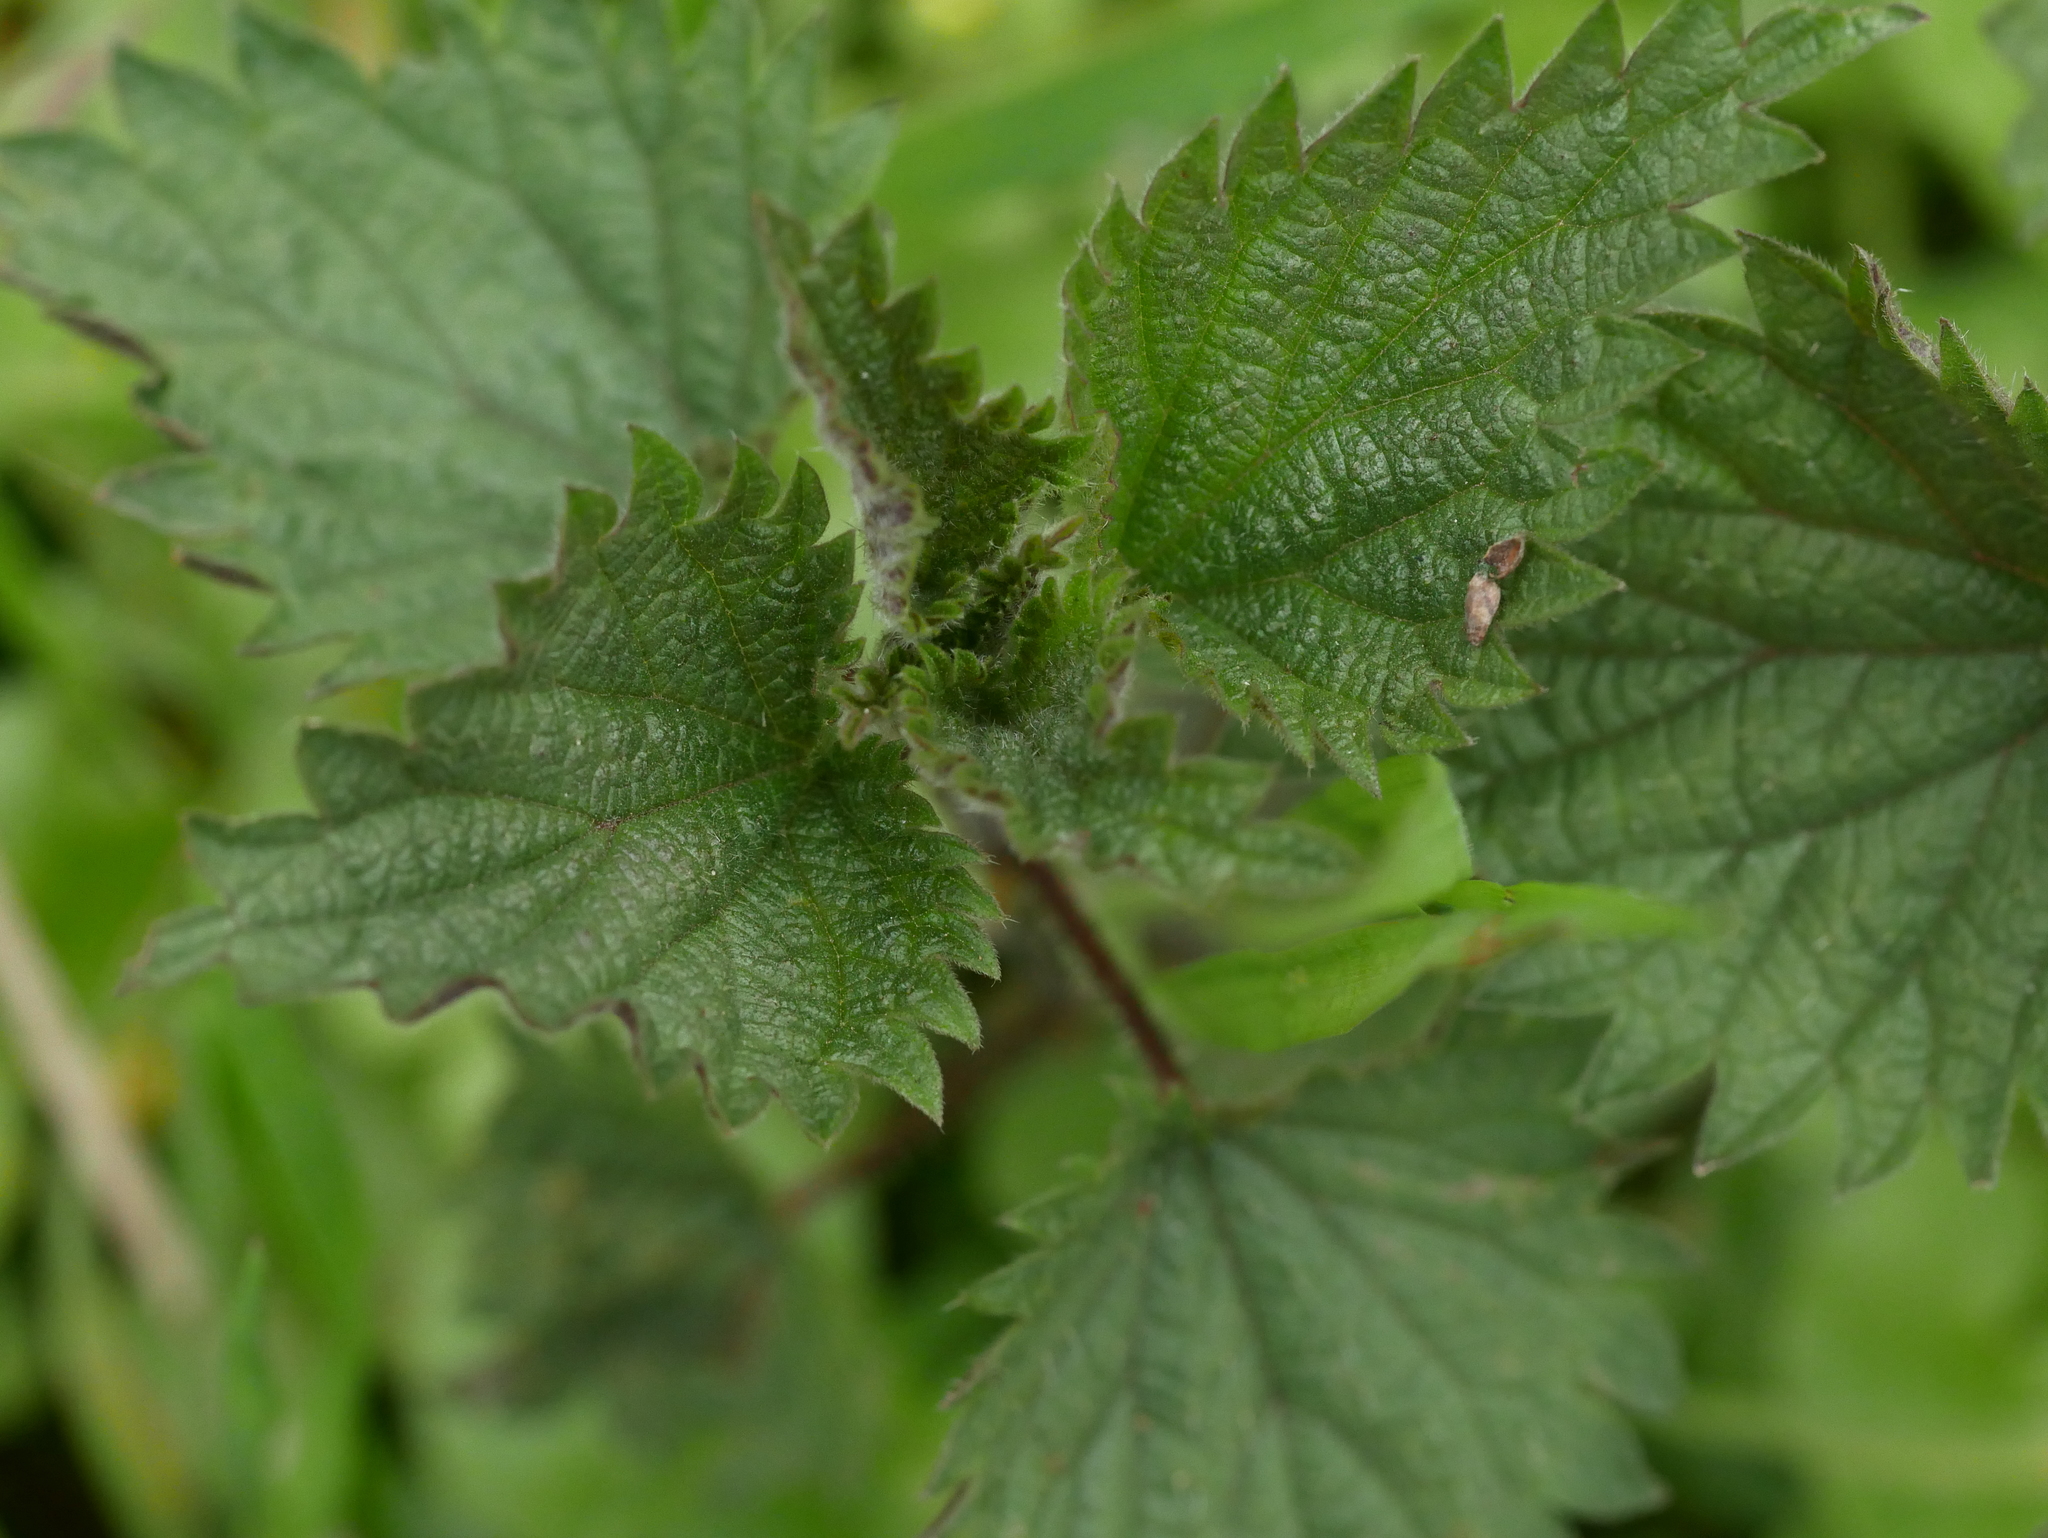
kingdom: Plantae
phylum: Tracheophyta
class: Magnoliopsida
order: Rosales
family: Urticaceae
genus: Urtica
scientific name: Urtica dioica
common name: Common nettle
